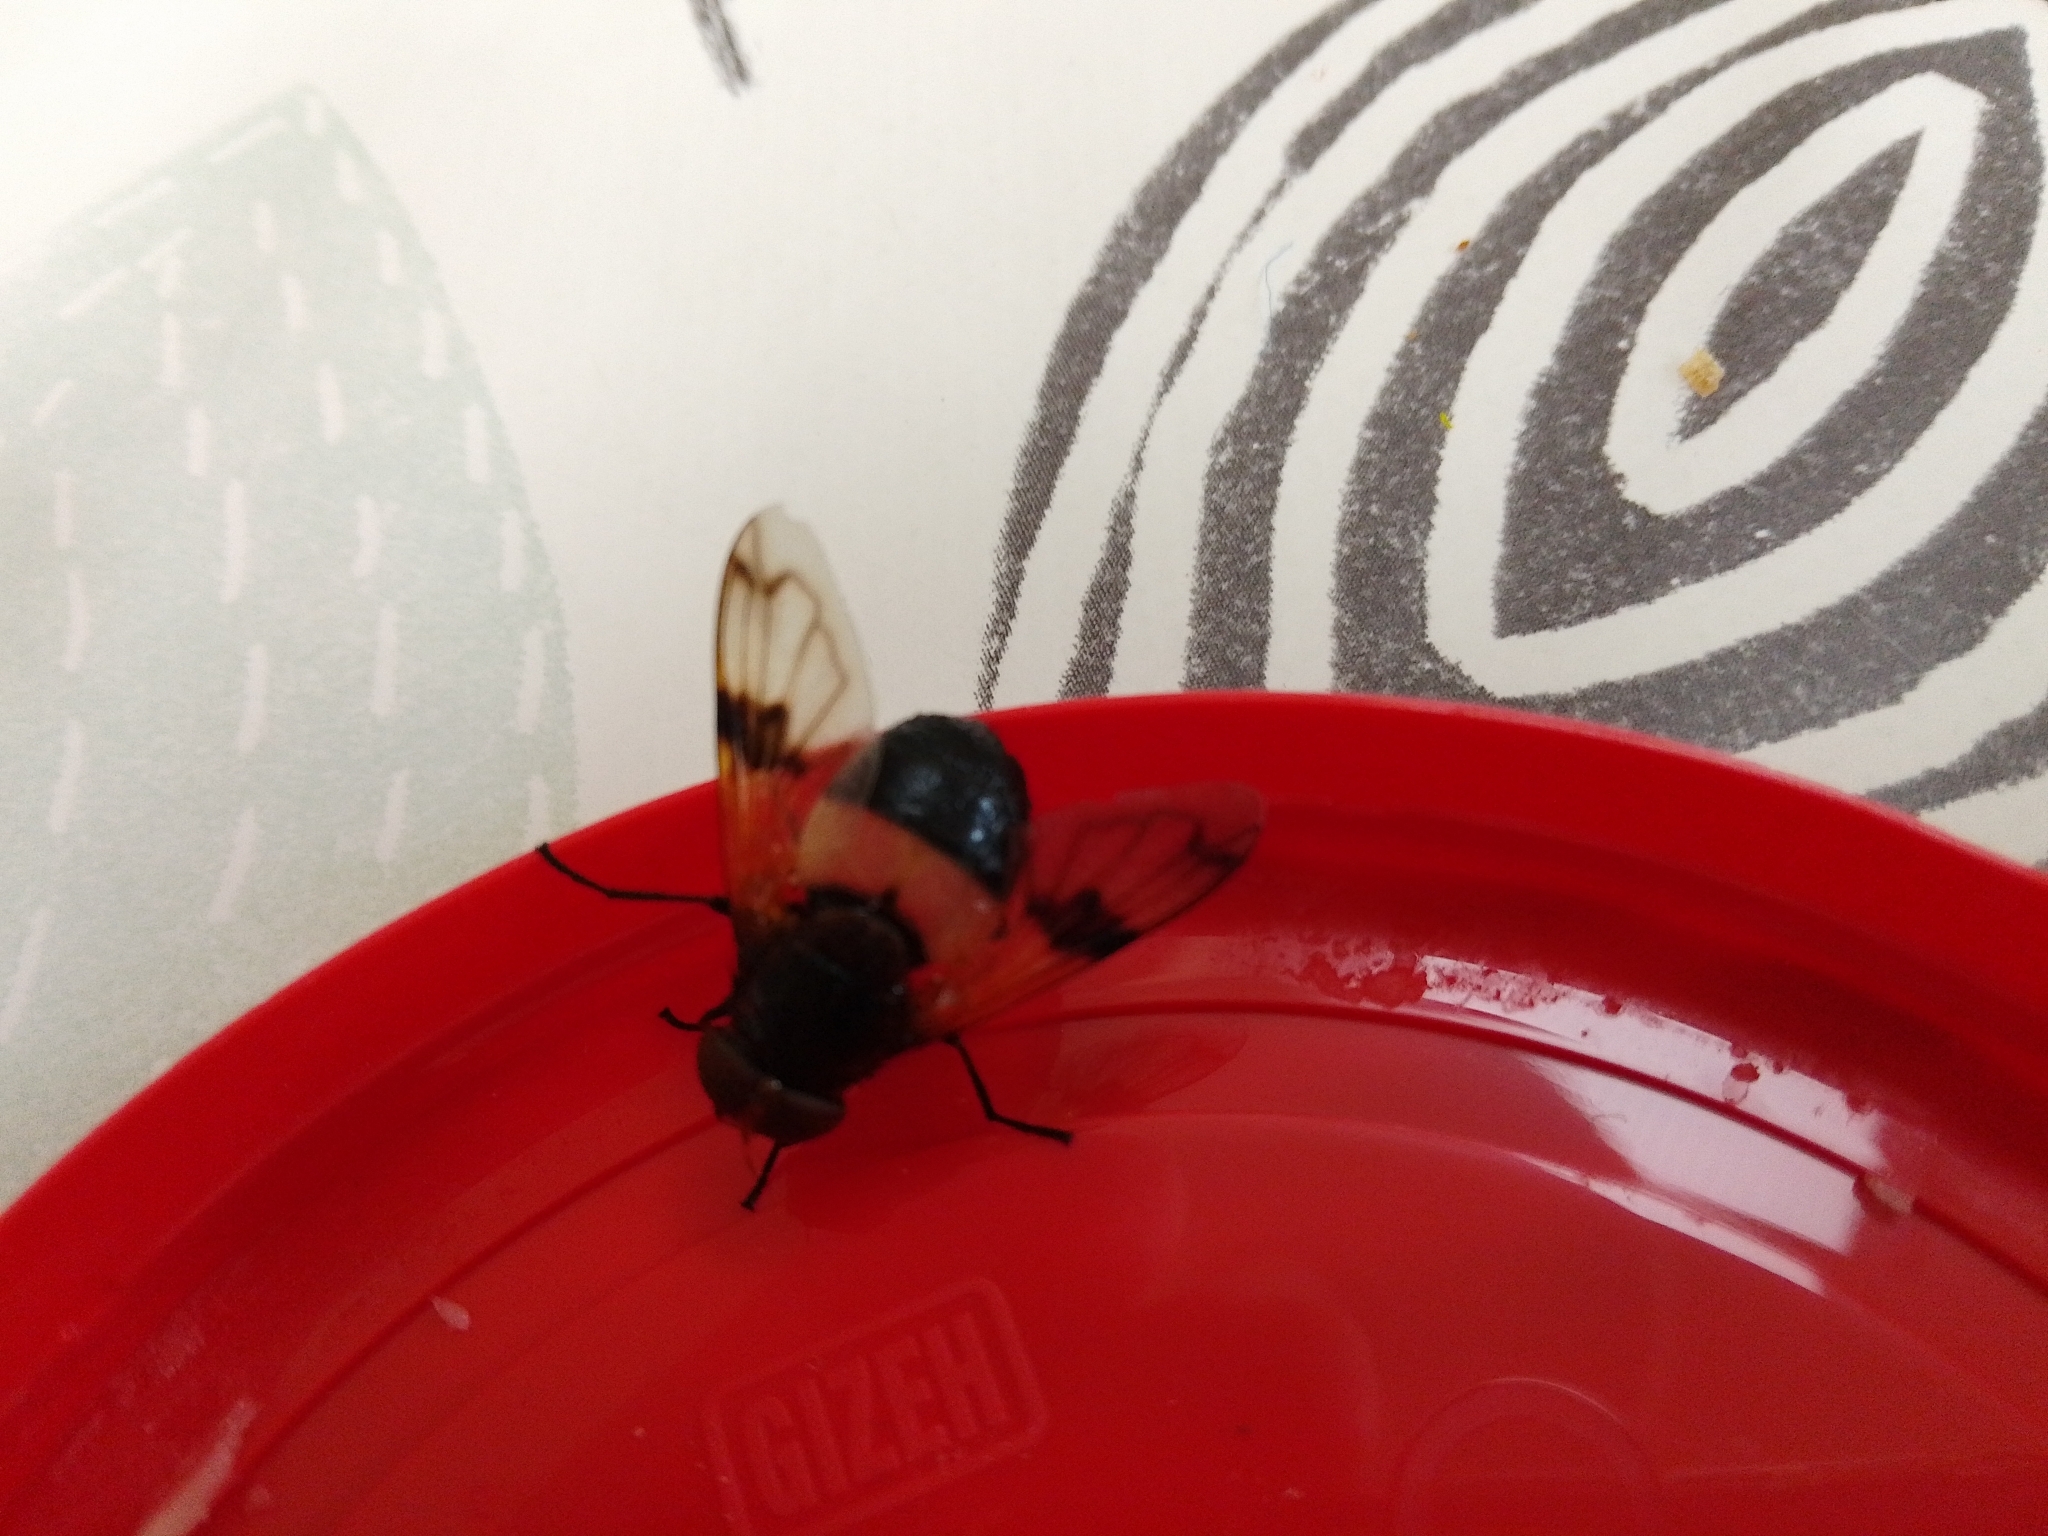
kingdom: Animalia
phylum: Arthropoda
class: Insecta
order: Diptera
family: Syrphidae
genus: Volucella
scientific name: Volucella pellucens
